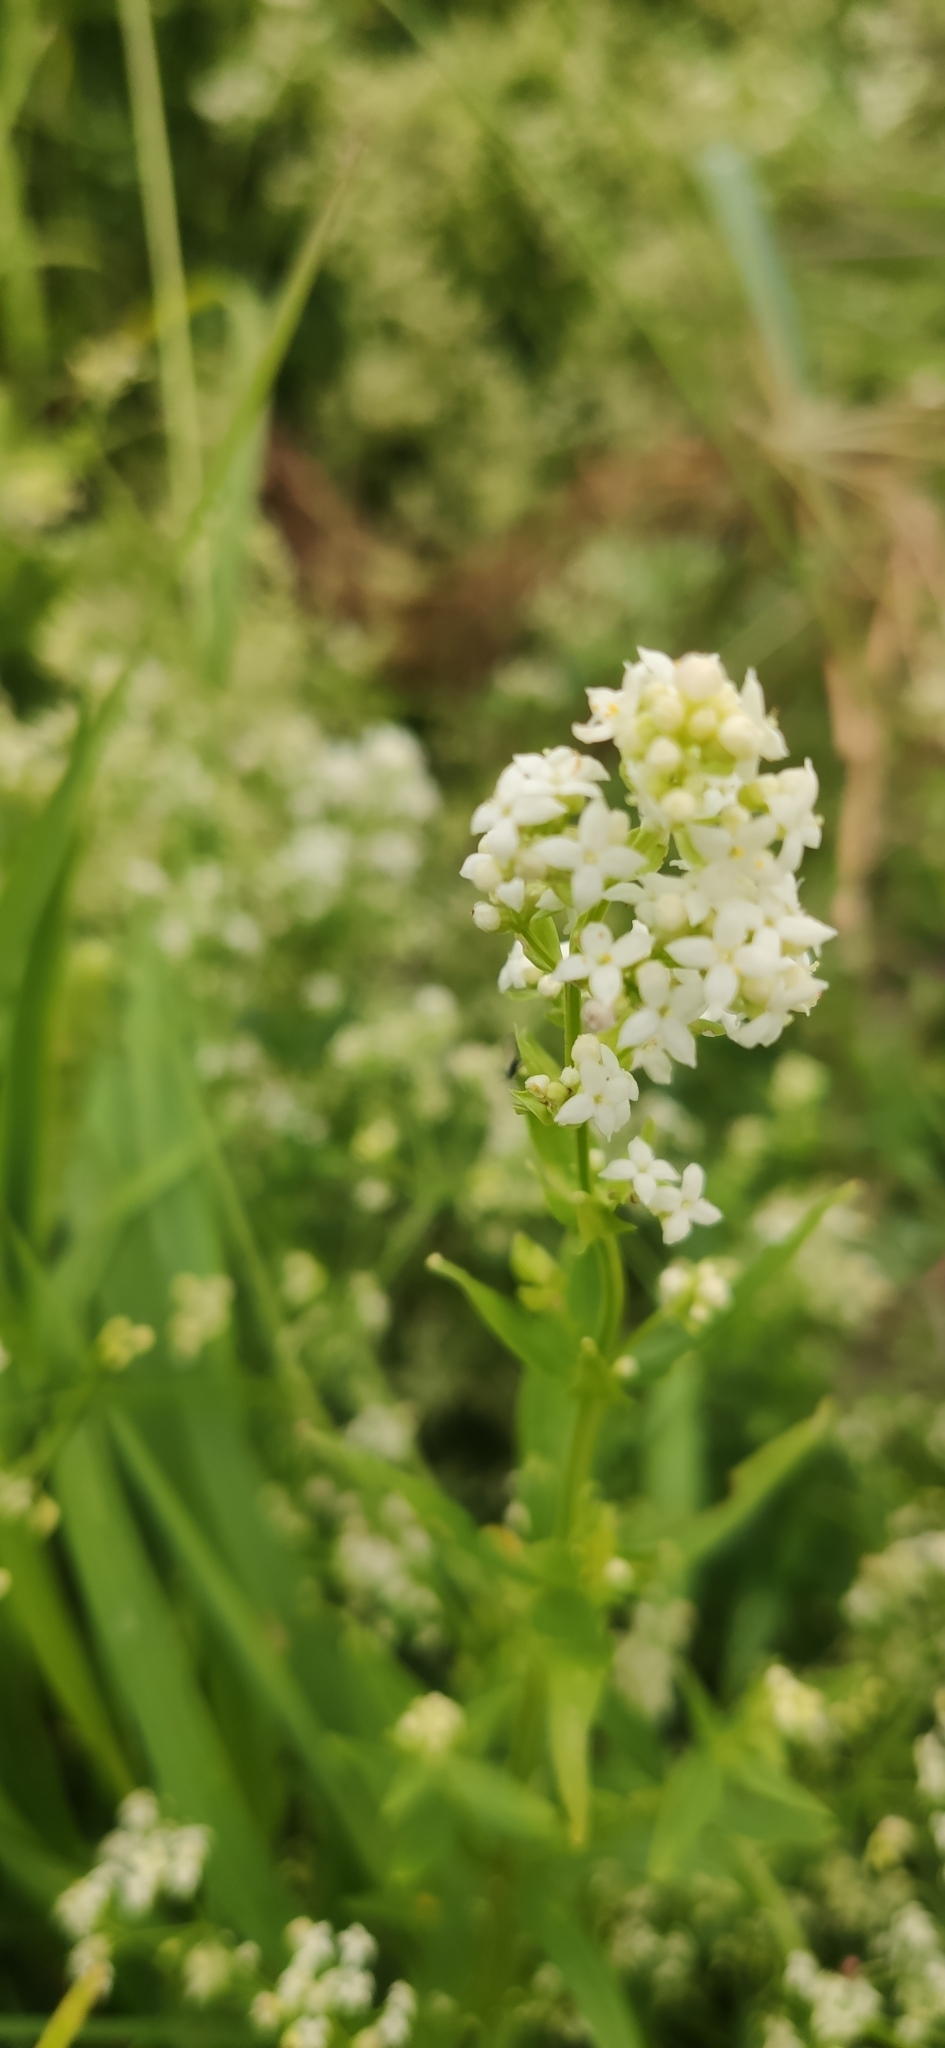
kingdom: Plantae
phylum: Tracheophyta
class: Magnoliopsida
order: Gentianales
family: Rubiaceae
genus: Galium
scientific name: Galium boreale
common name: Northern bedstraw
